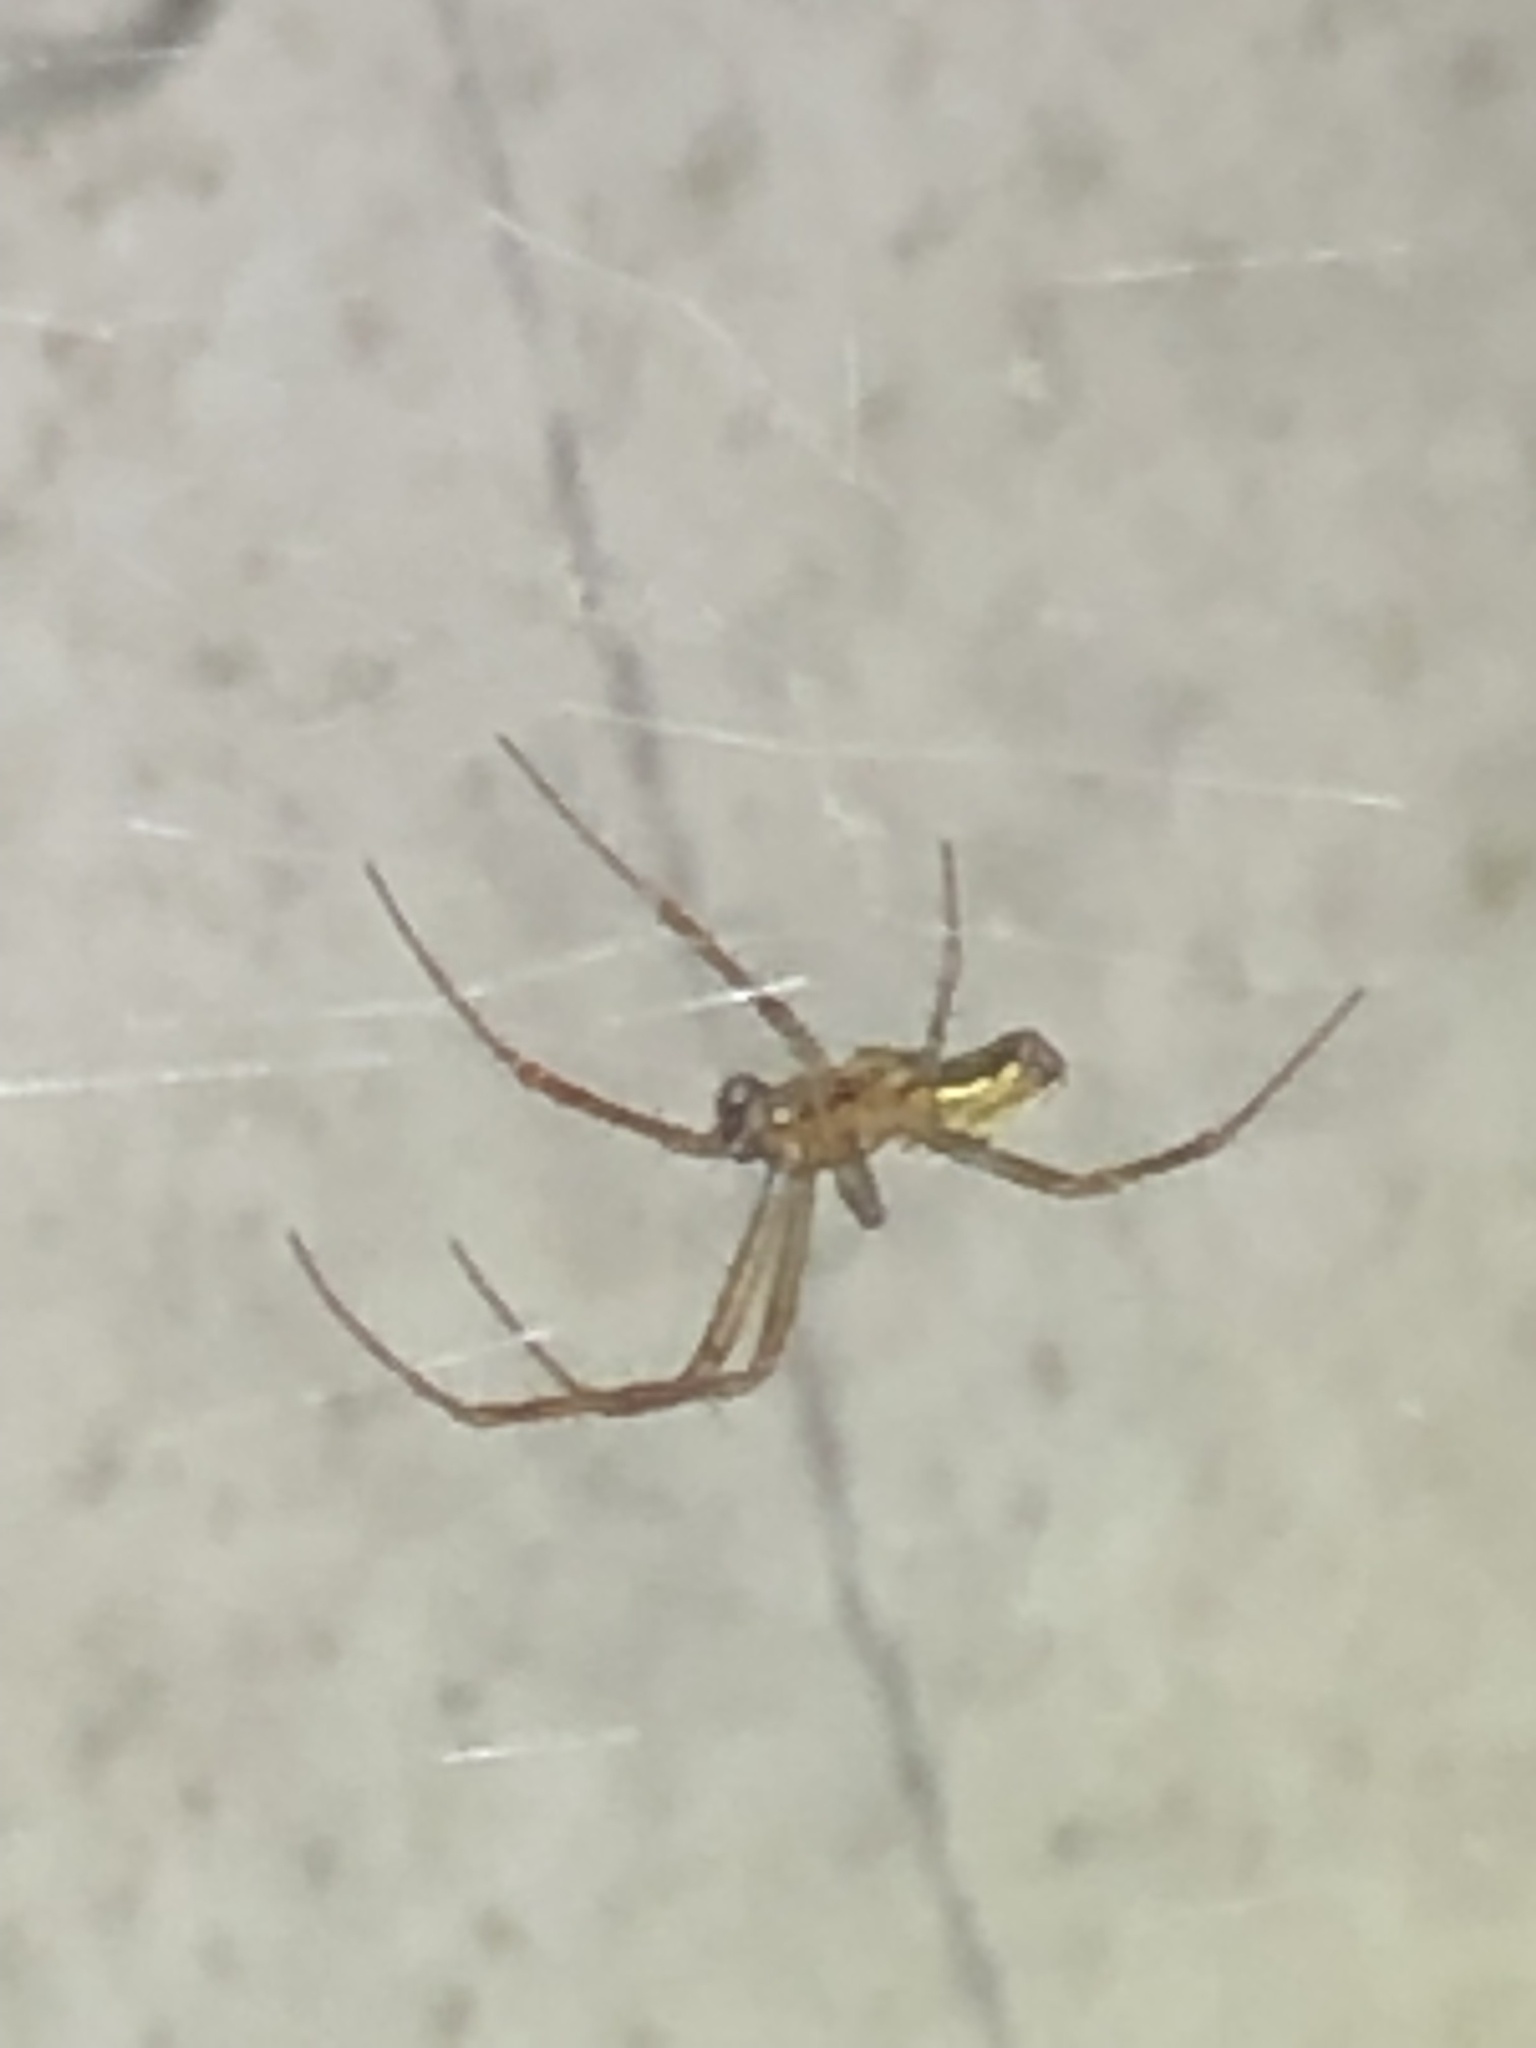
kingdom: Animalia
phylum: Arthropoda
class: Arachnida
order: Araneae
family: Araneidae
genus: Mecynogea
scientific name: Mecynogea lemniscata
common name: Orb weavers
